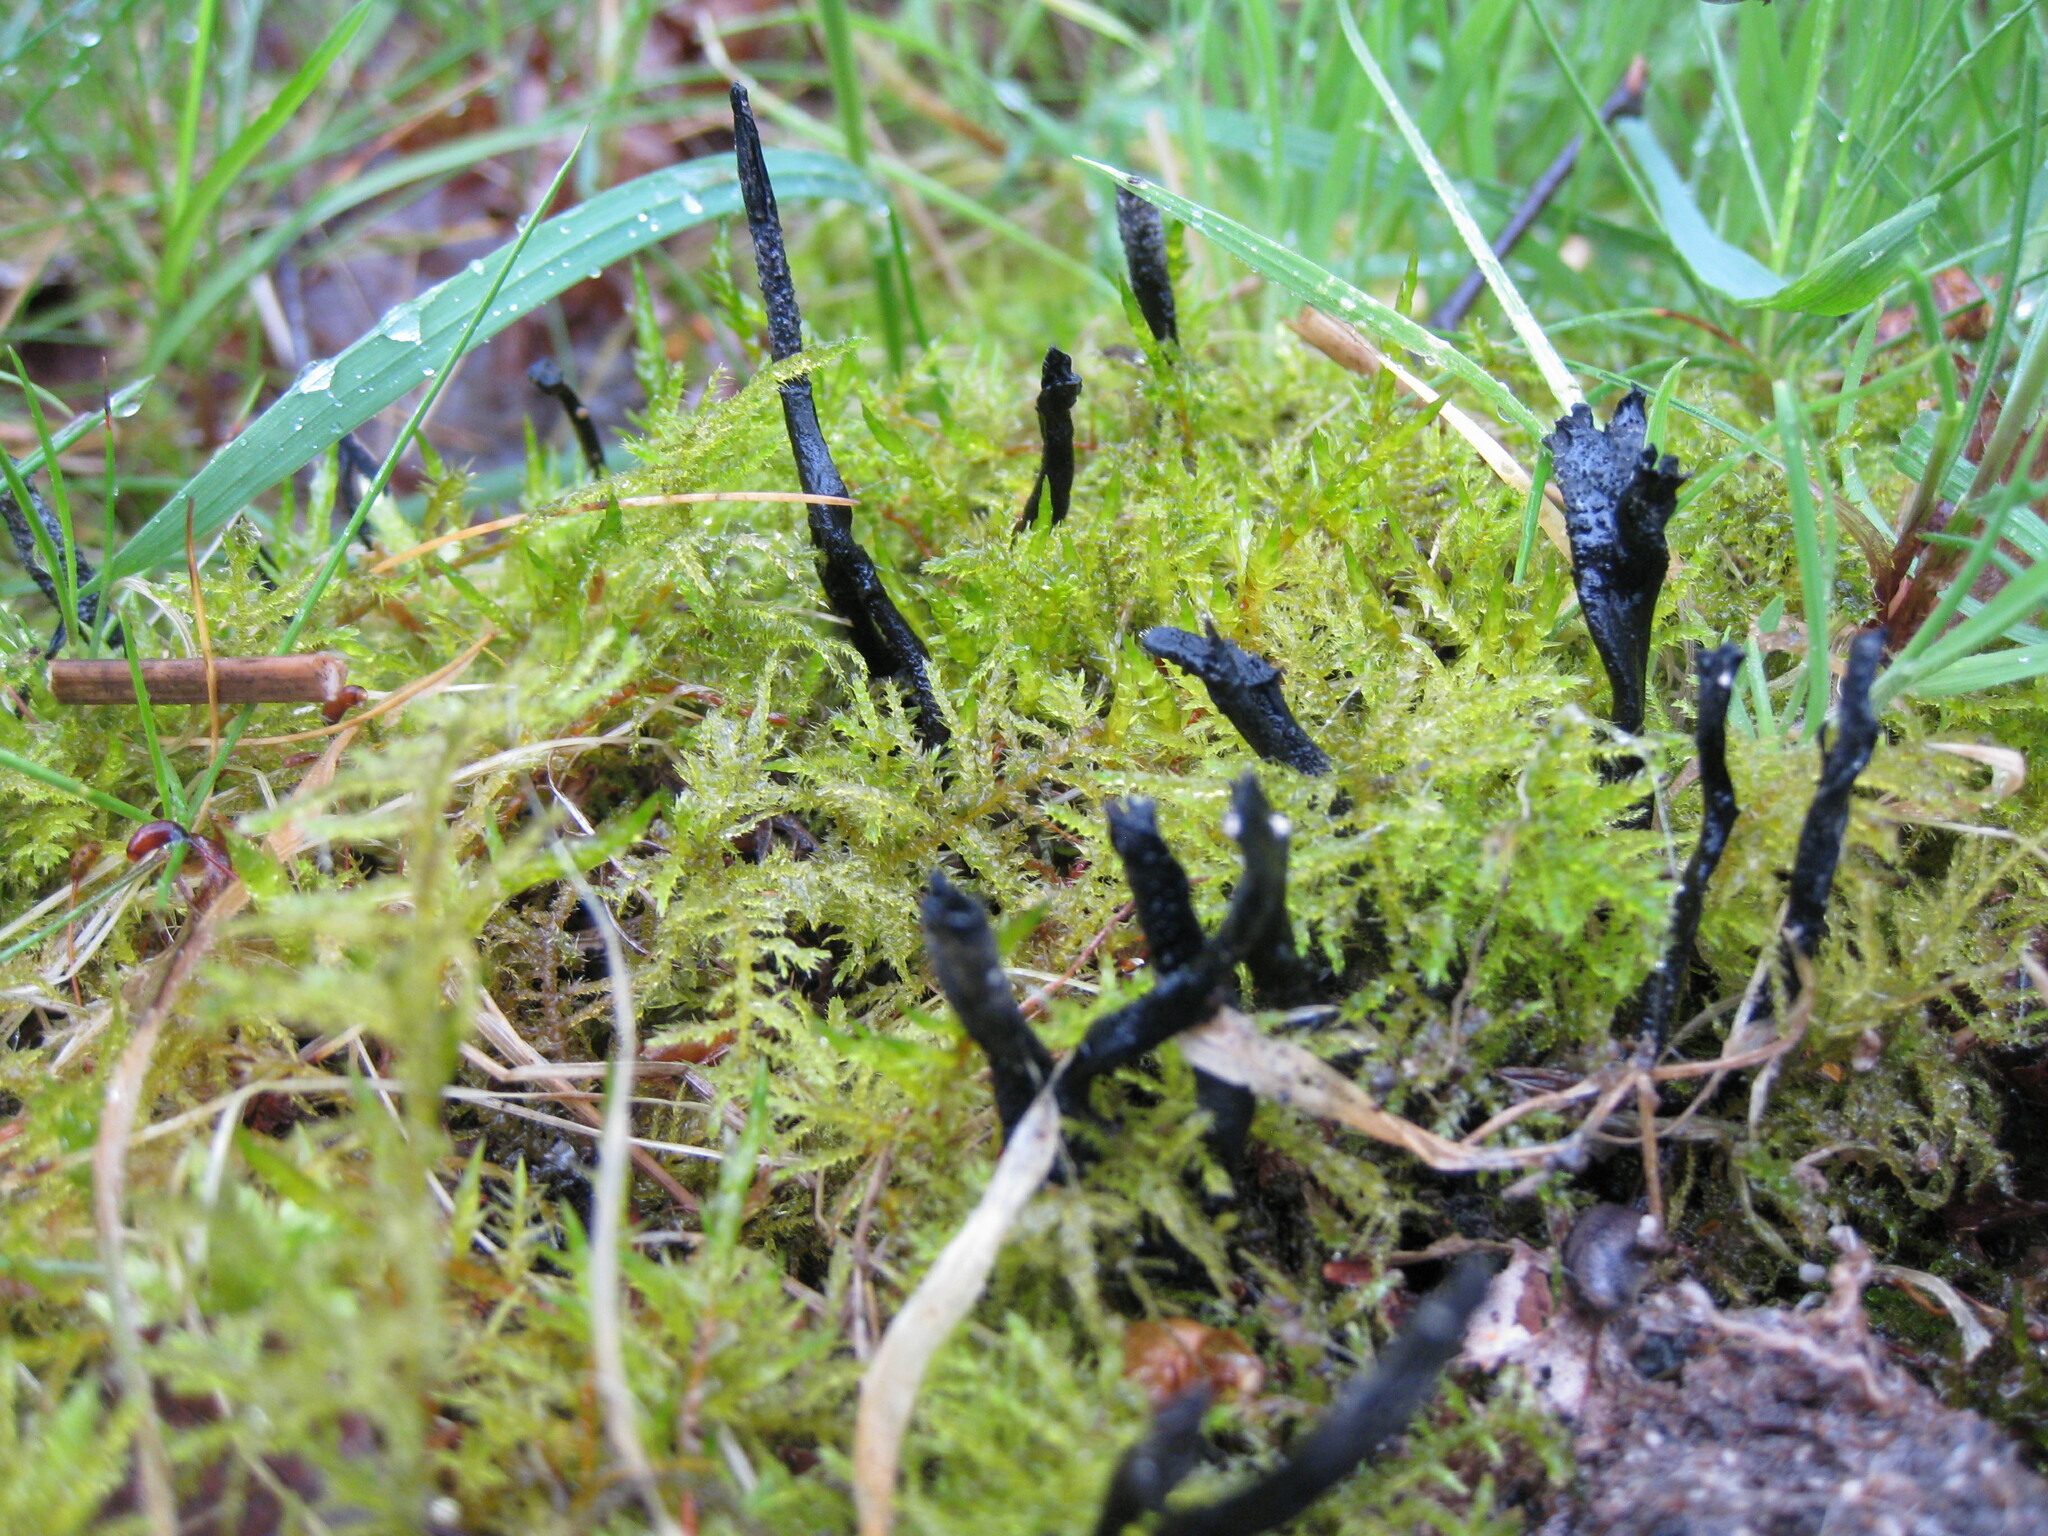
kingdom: Fungi
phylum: Ascomycota
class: Sordariomycetes
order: Xylariales
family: Xylariaceae
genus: Xylaria
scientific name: Xylaria hypoxylon
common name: Candle-snuff fungus
